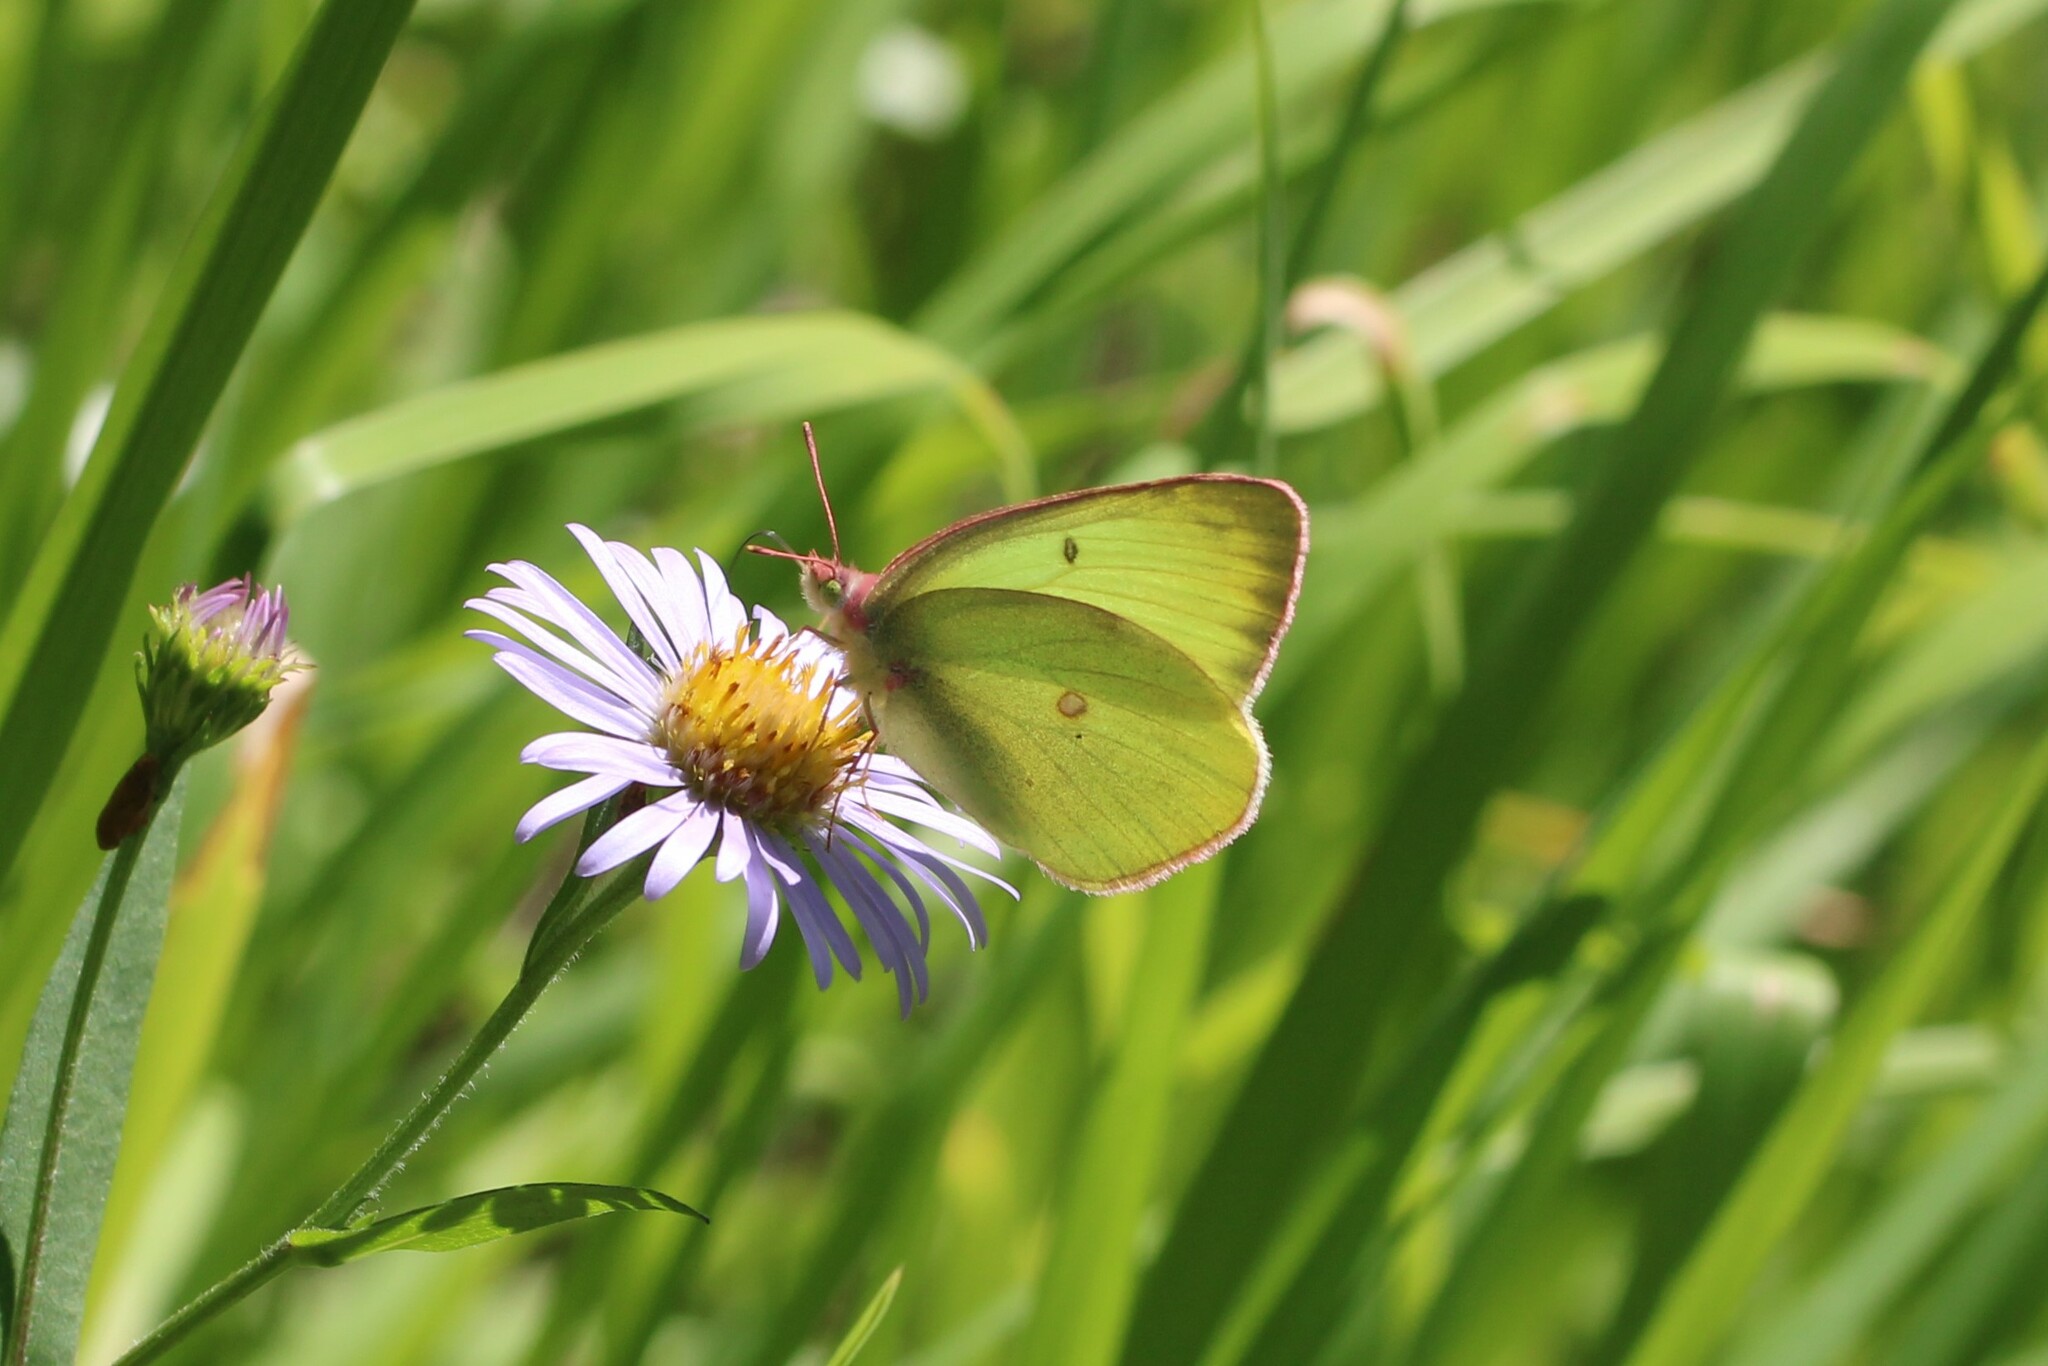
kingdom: Animalia
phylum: Arthropoda
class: Insecta
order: Lepidoptera
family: Pieridae
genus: Colias
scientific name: Colias interior
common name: Pink-edged sulphur
